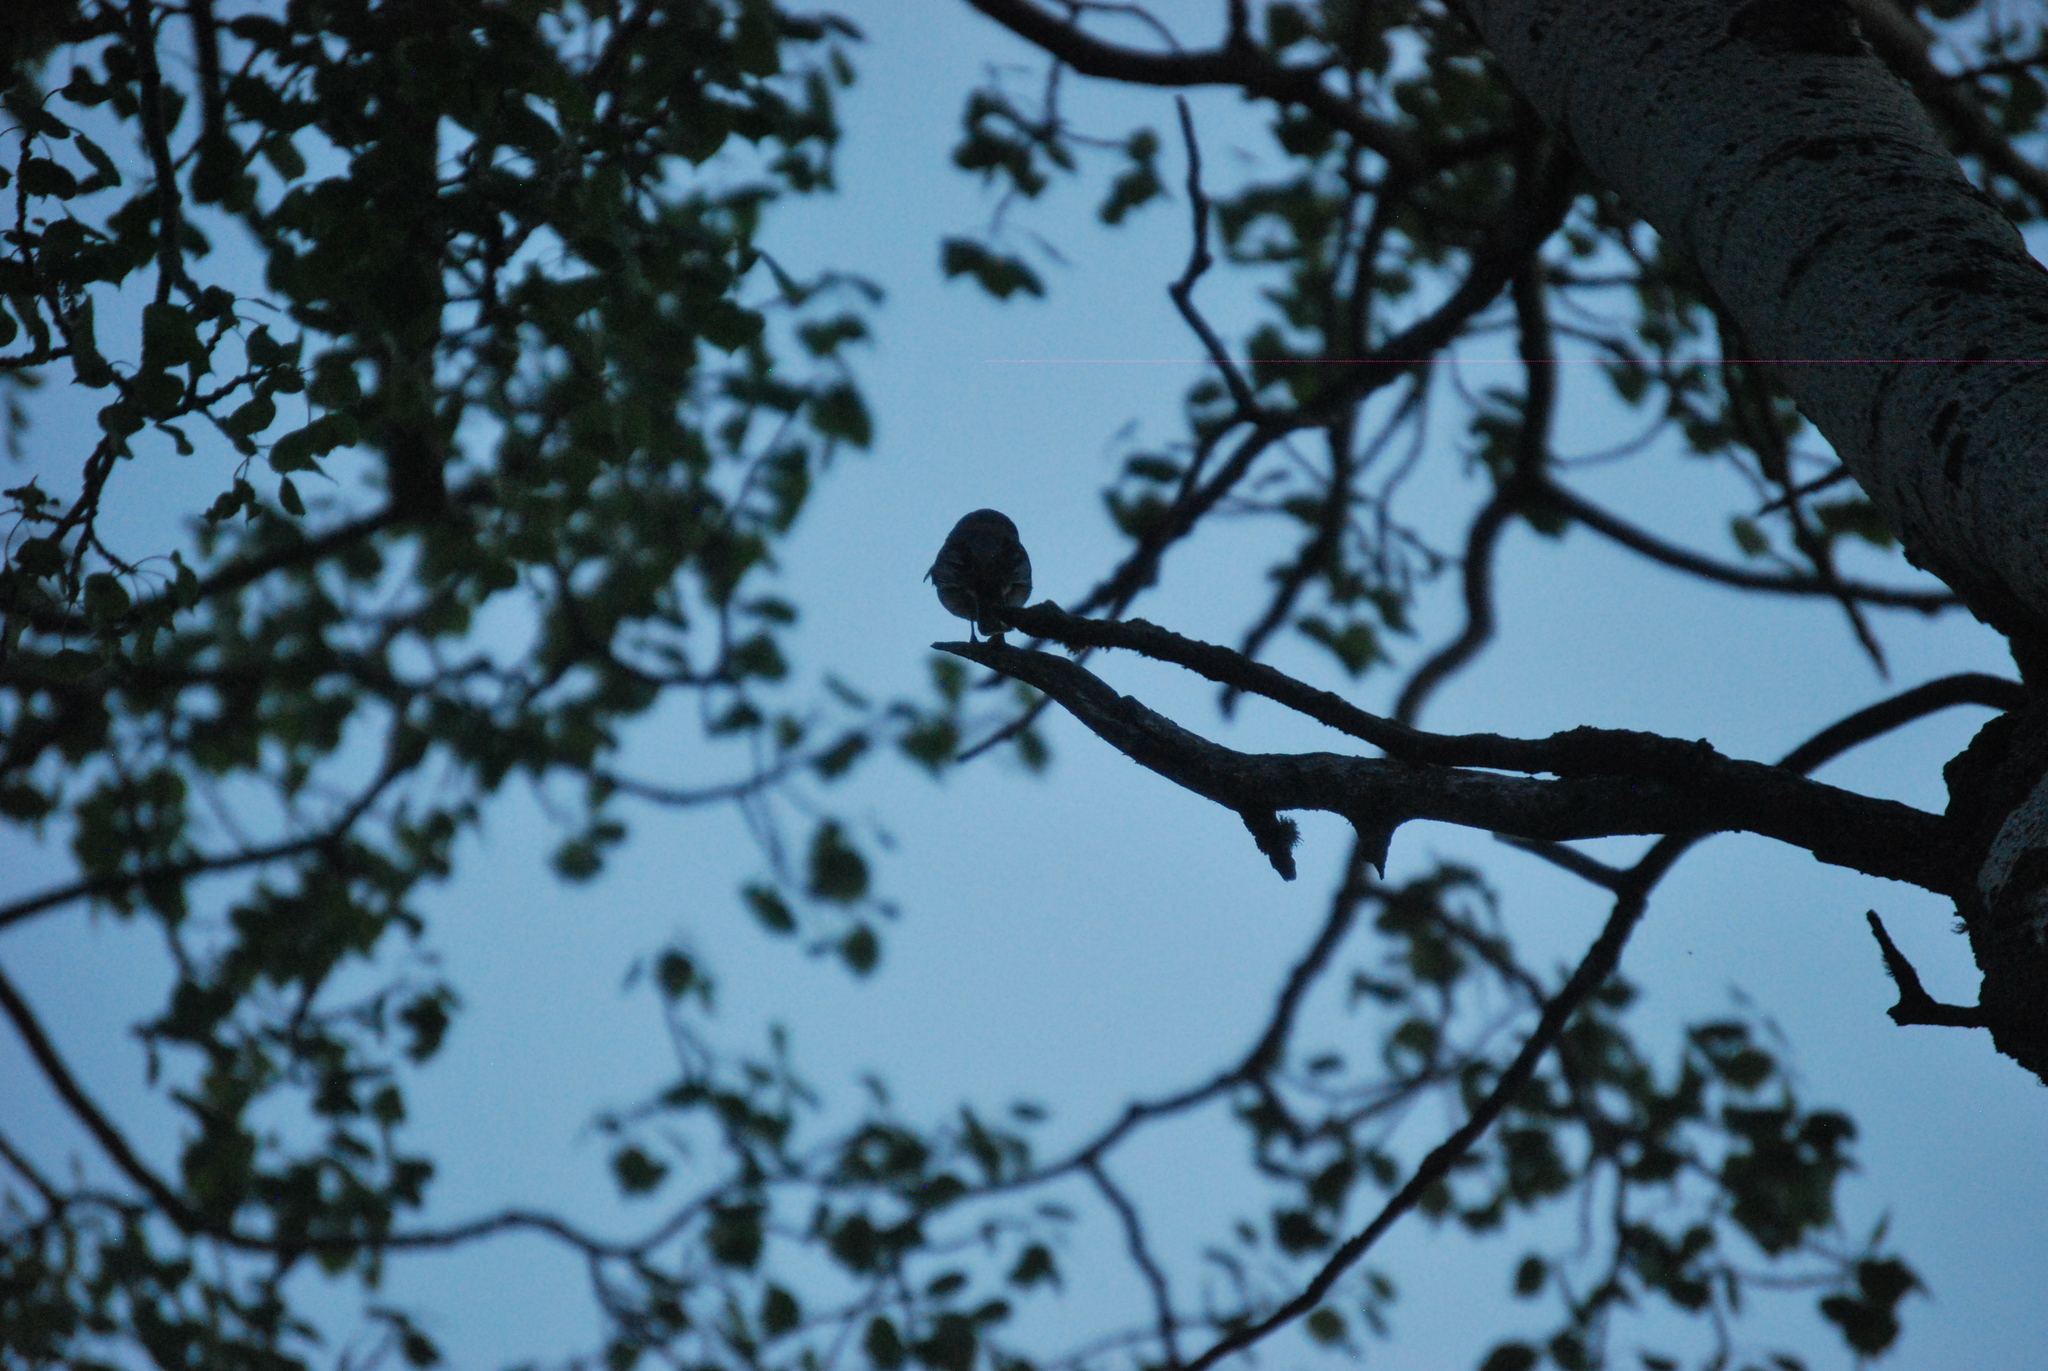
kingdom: Animalia
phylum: Chordata
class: Aves
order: Passeriformes
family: Passerellidae
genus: Junco
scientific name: Junco hyemalis
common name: Dark-eyed junco
